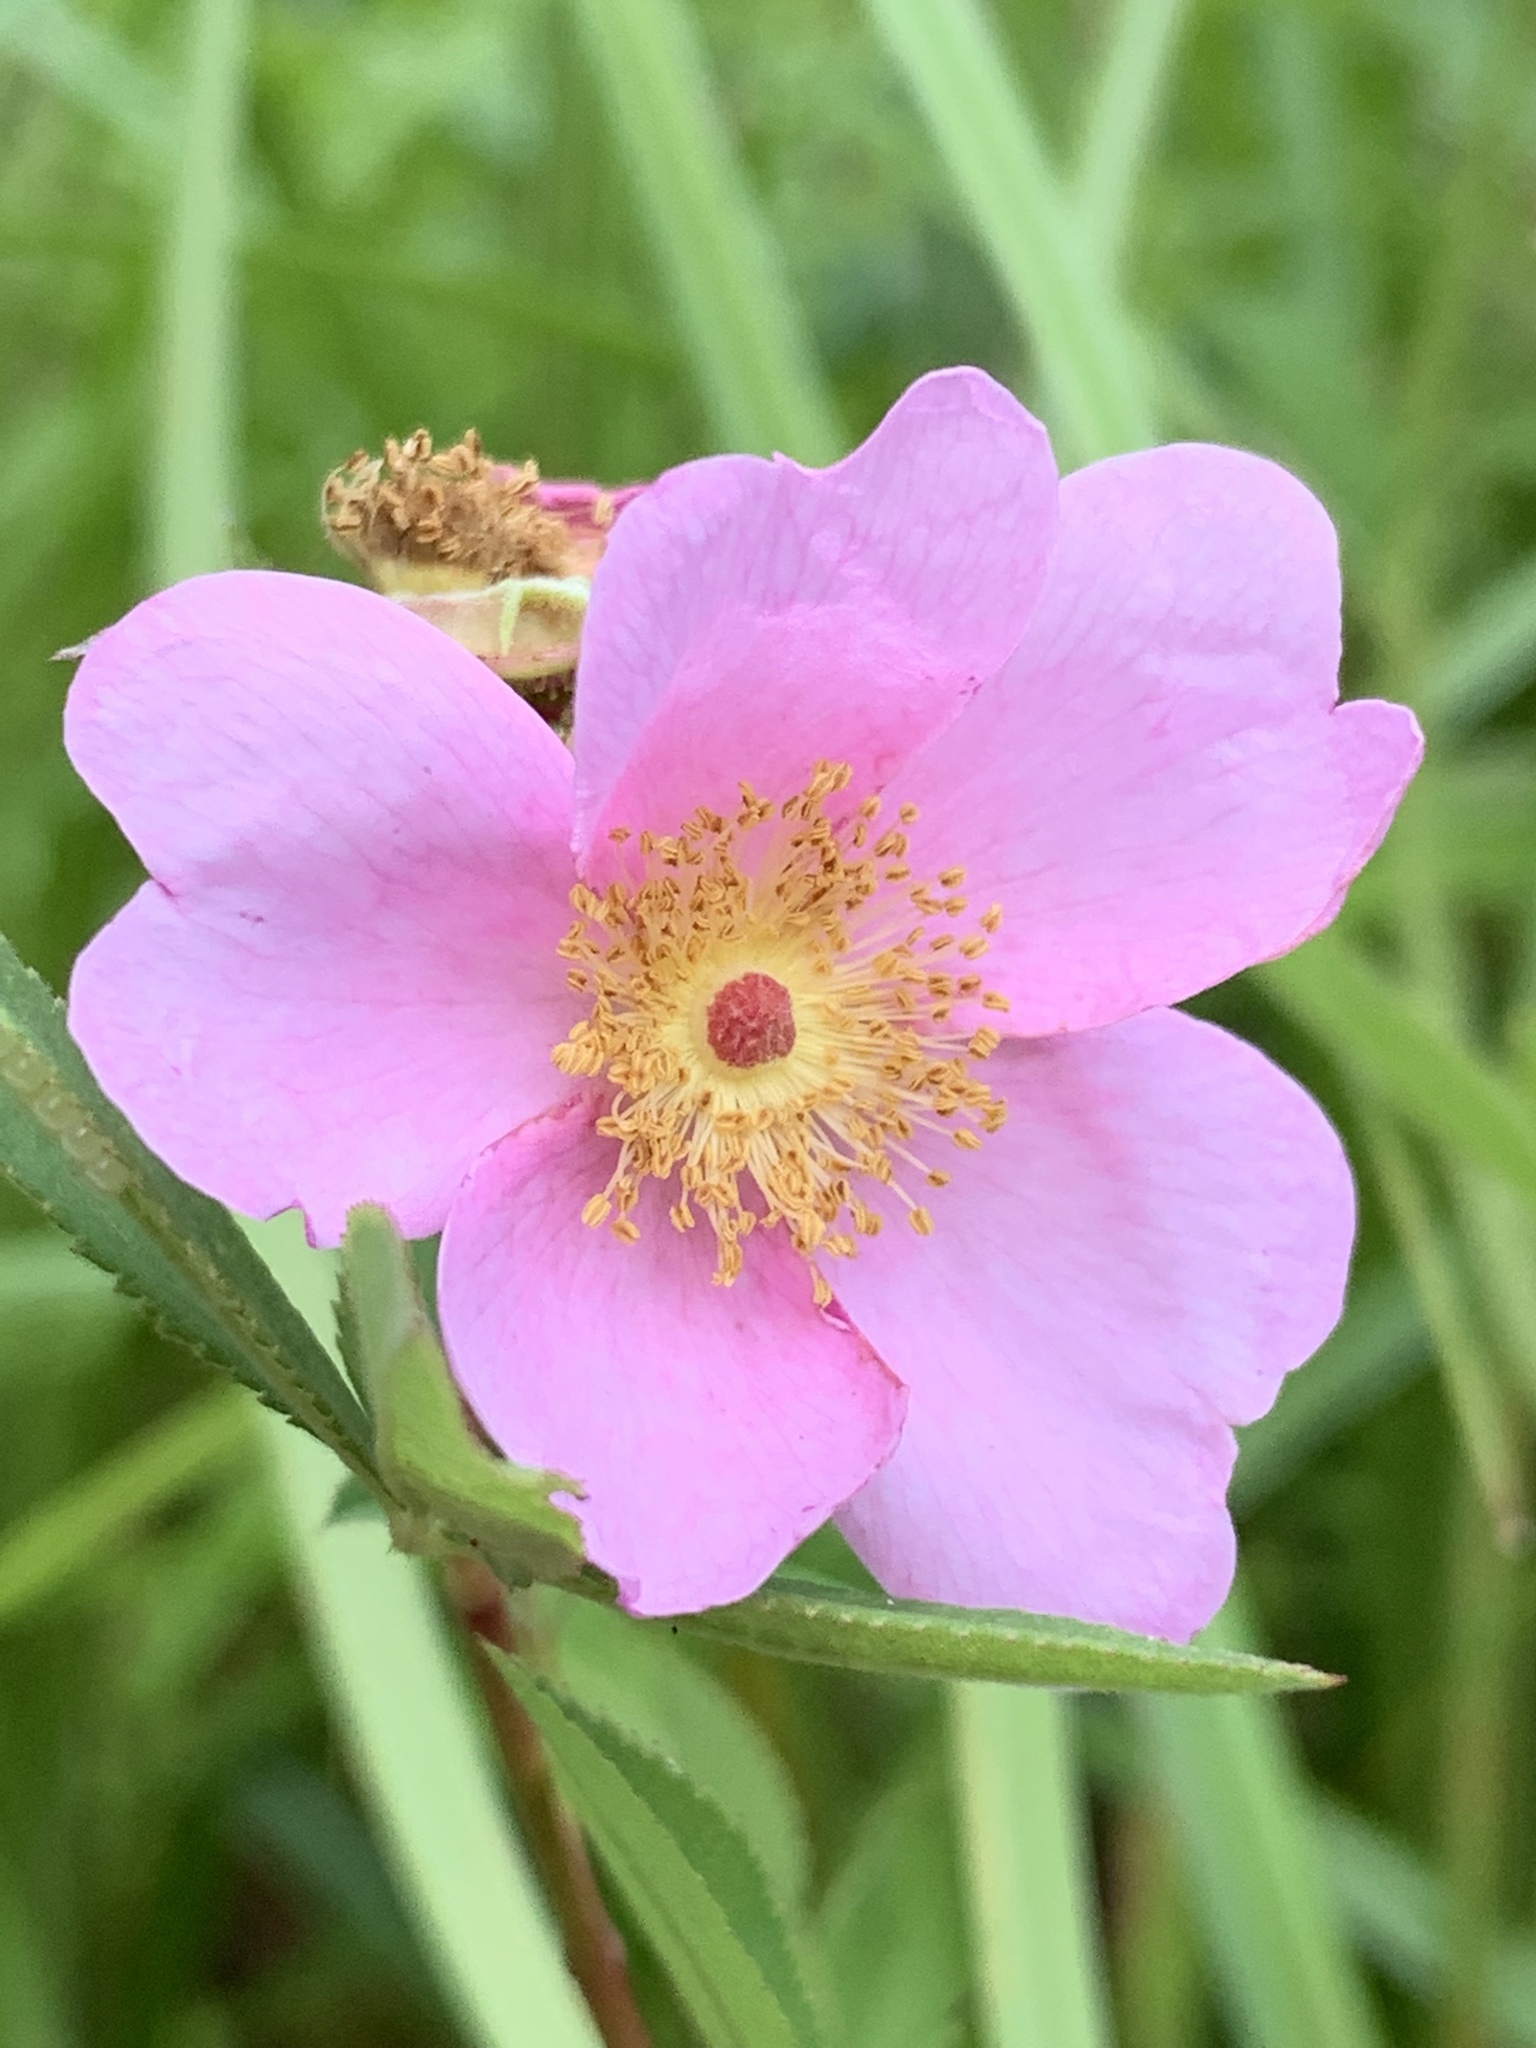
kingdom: Plantae
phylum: Tracheophyta
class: Magnoliopsida
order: Rosales
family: Rosaceae
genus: Rosa
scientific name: Rosa palustris
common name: Swamp rose
